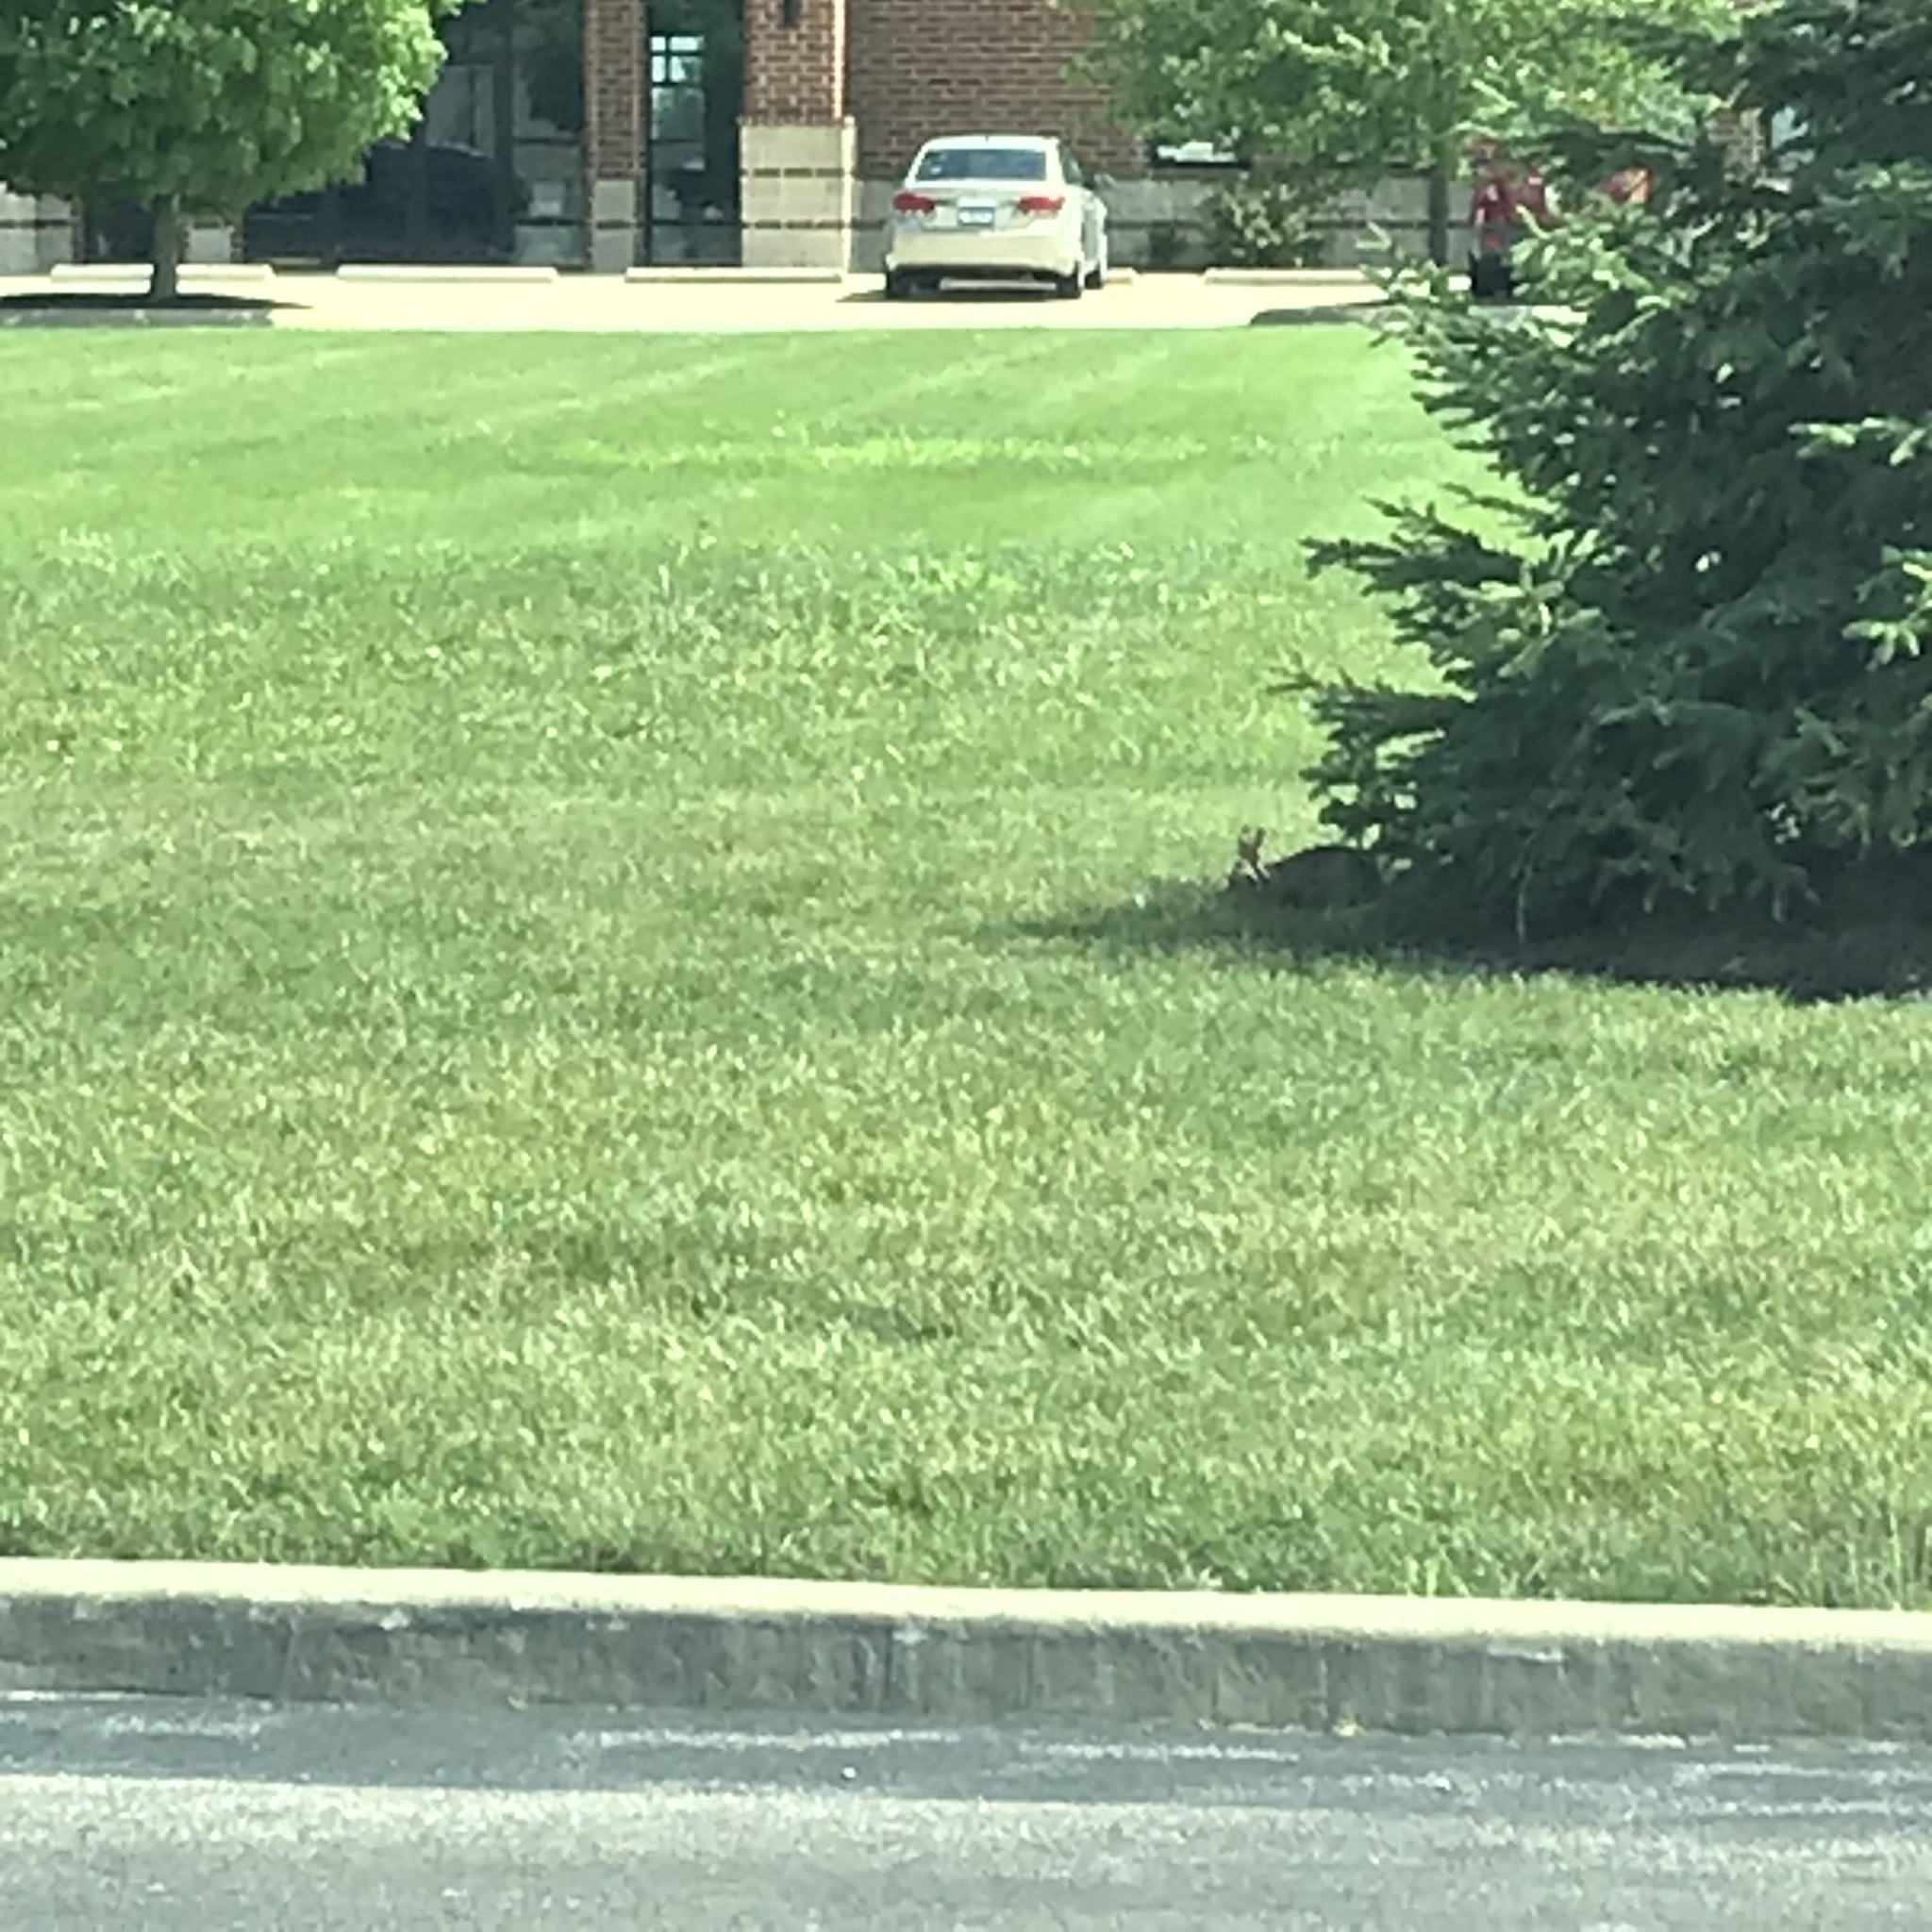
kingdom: Animalia
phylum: Chordata
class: Mammalia
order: Lagomorpha
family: Leporidae
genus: Sylvilagus
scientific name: Sylvilagus floridanus
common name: Eastern cottontail
